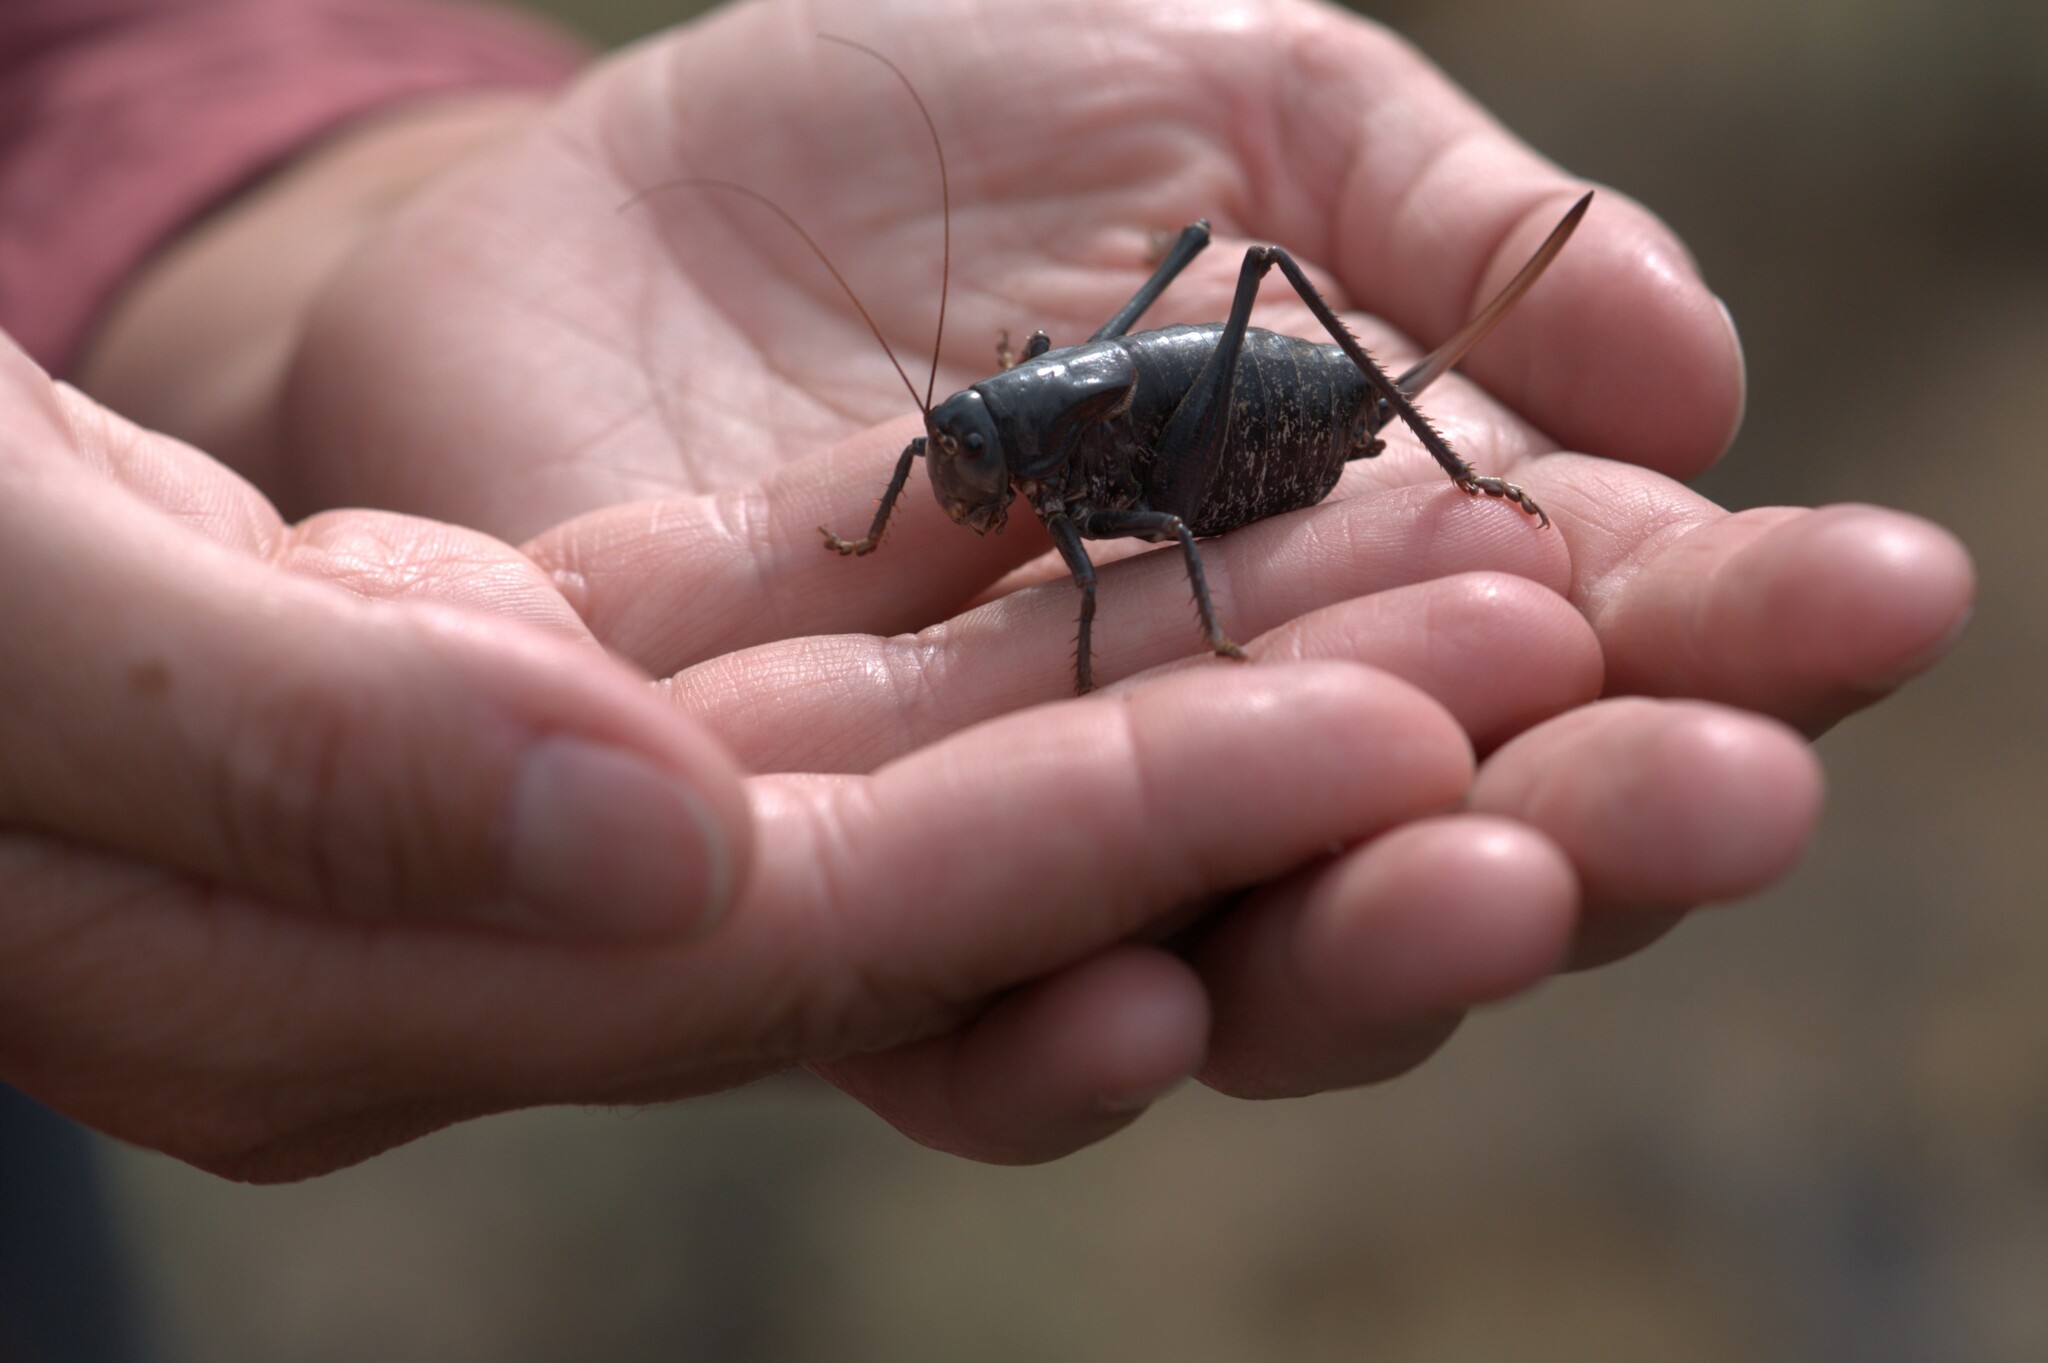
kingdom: Animalia
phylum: Arthropoda
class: Insecta
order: Orthoptera
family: Tettigoniidae
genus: Anabrus
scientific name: Anabrus simplex
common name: Mormon cricket
